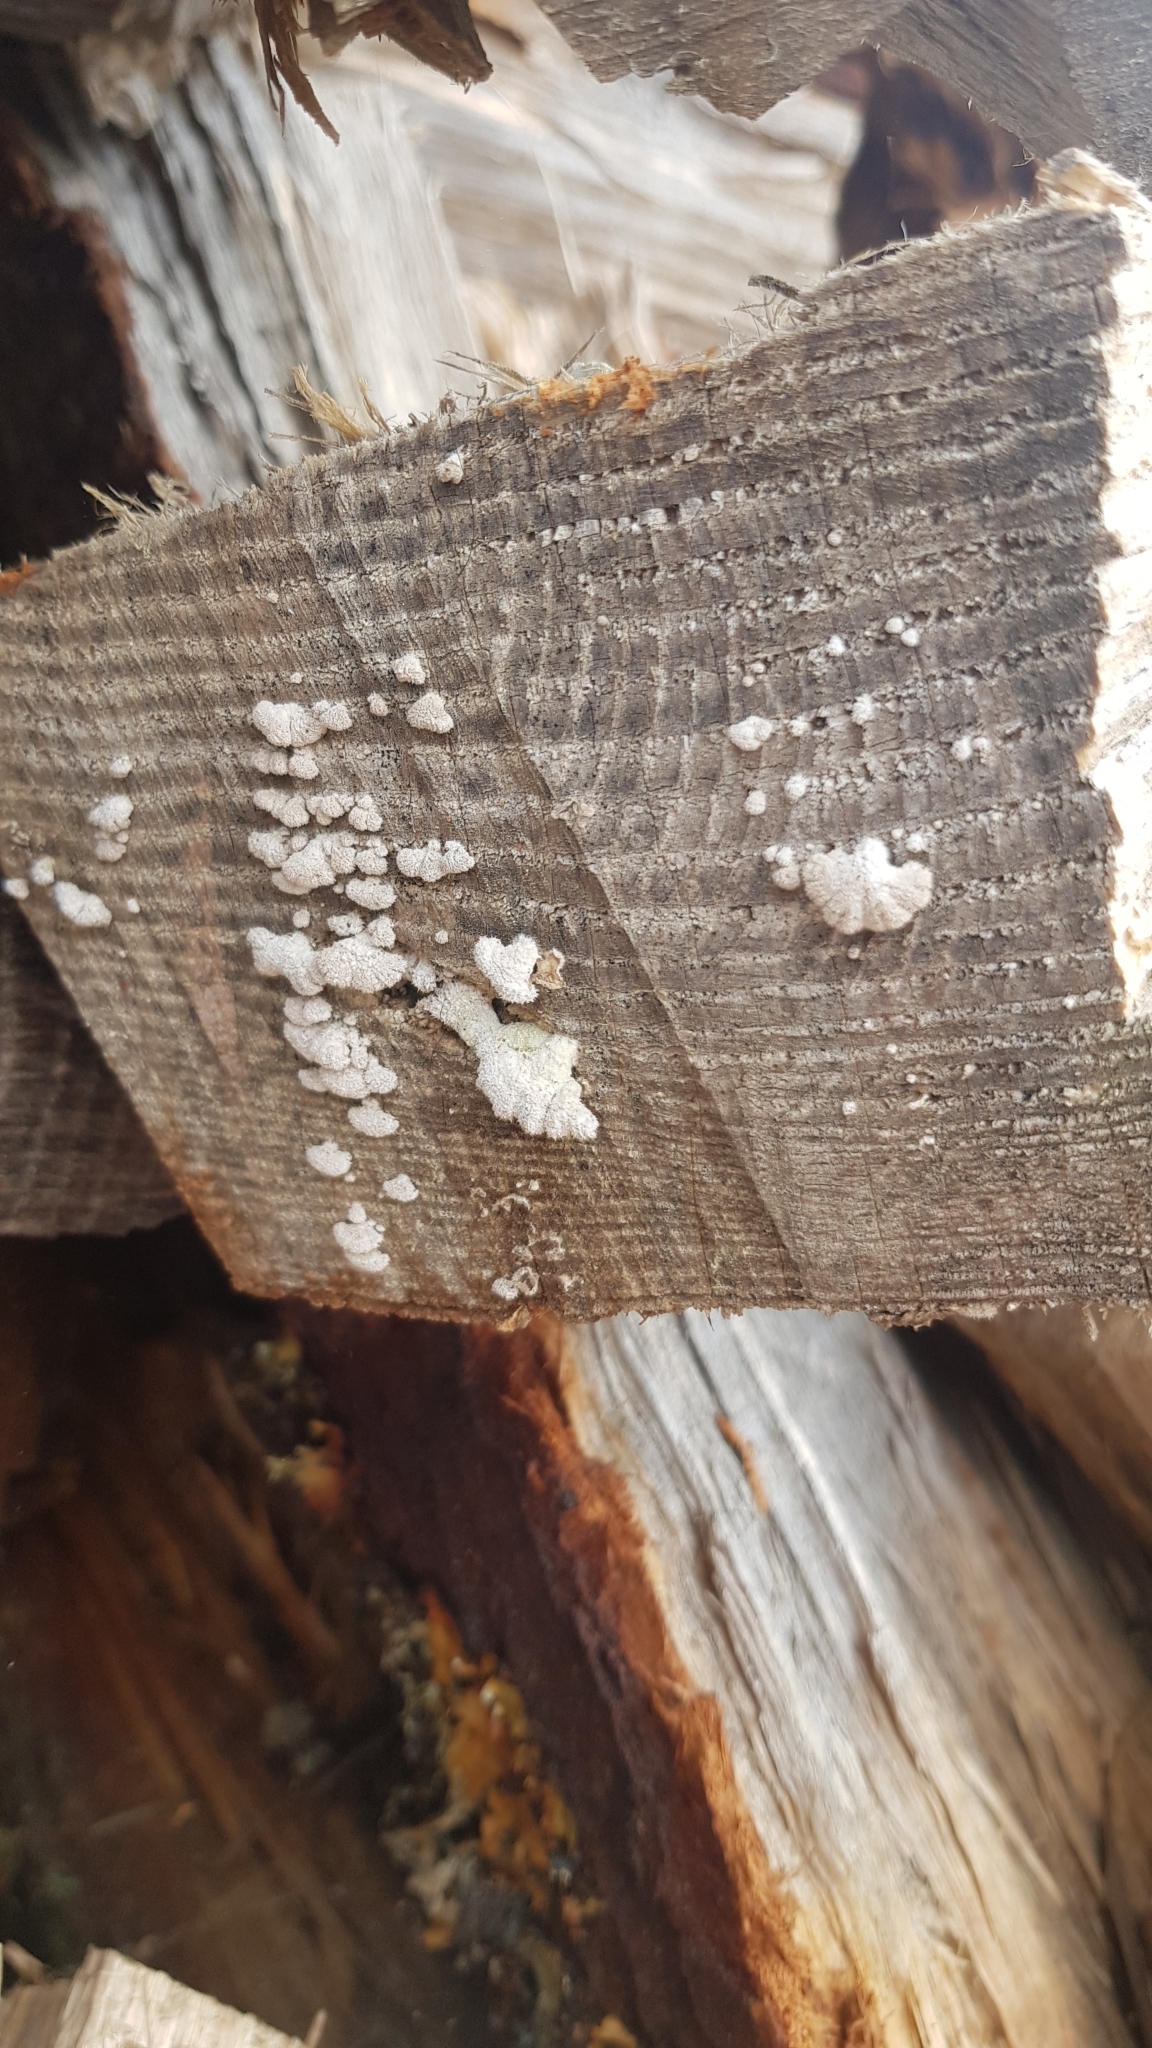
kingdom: Fungi
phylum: Basidiomycota
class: Agaricomycetes
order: Agaricales
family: Schizophyllaceae
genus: Schizophyllum
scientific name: Schizophyllum commune
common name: Common porecrust
